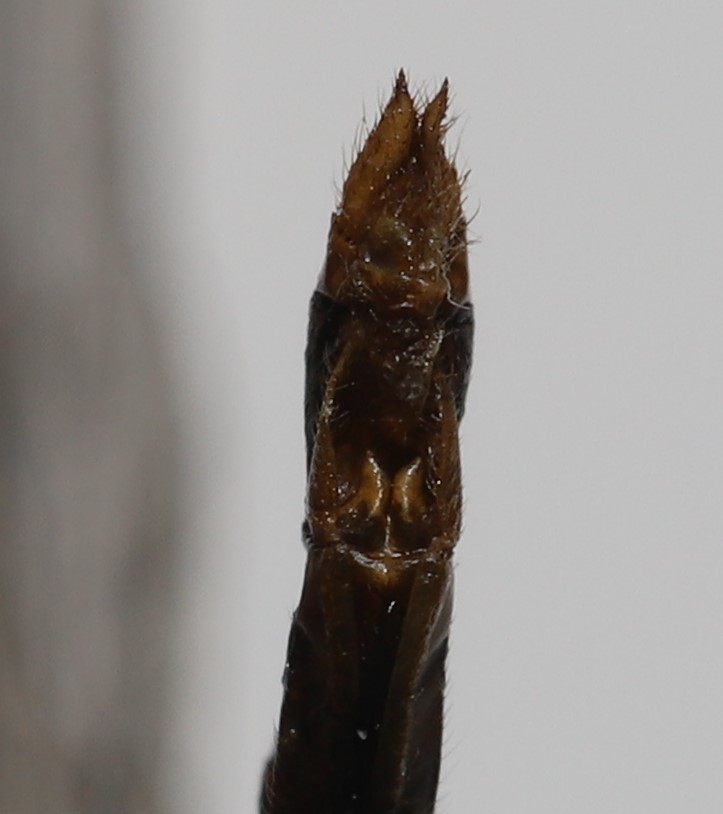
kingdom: Animalia
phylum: Arthropoda
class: Insecta
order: Odonata
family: Libellulidae
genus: Sympetrum
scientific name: Sympetrum internum
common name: Cherry-faced meadowhawk
